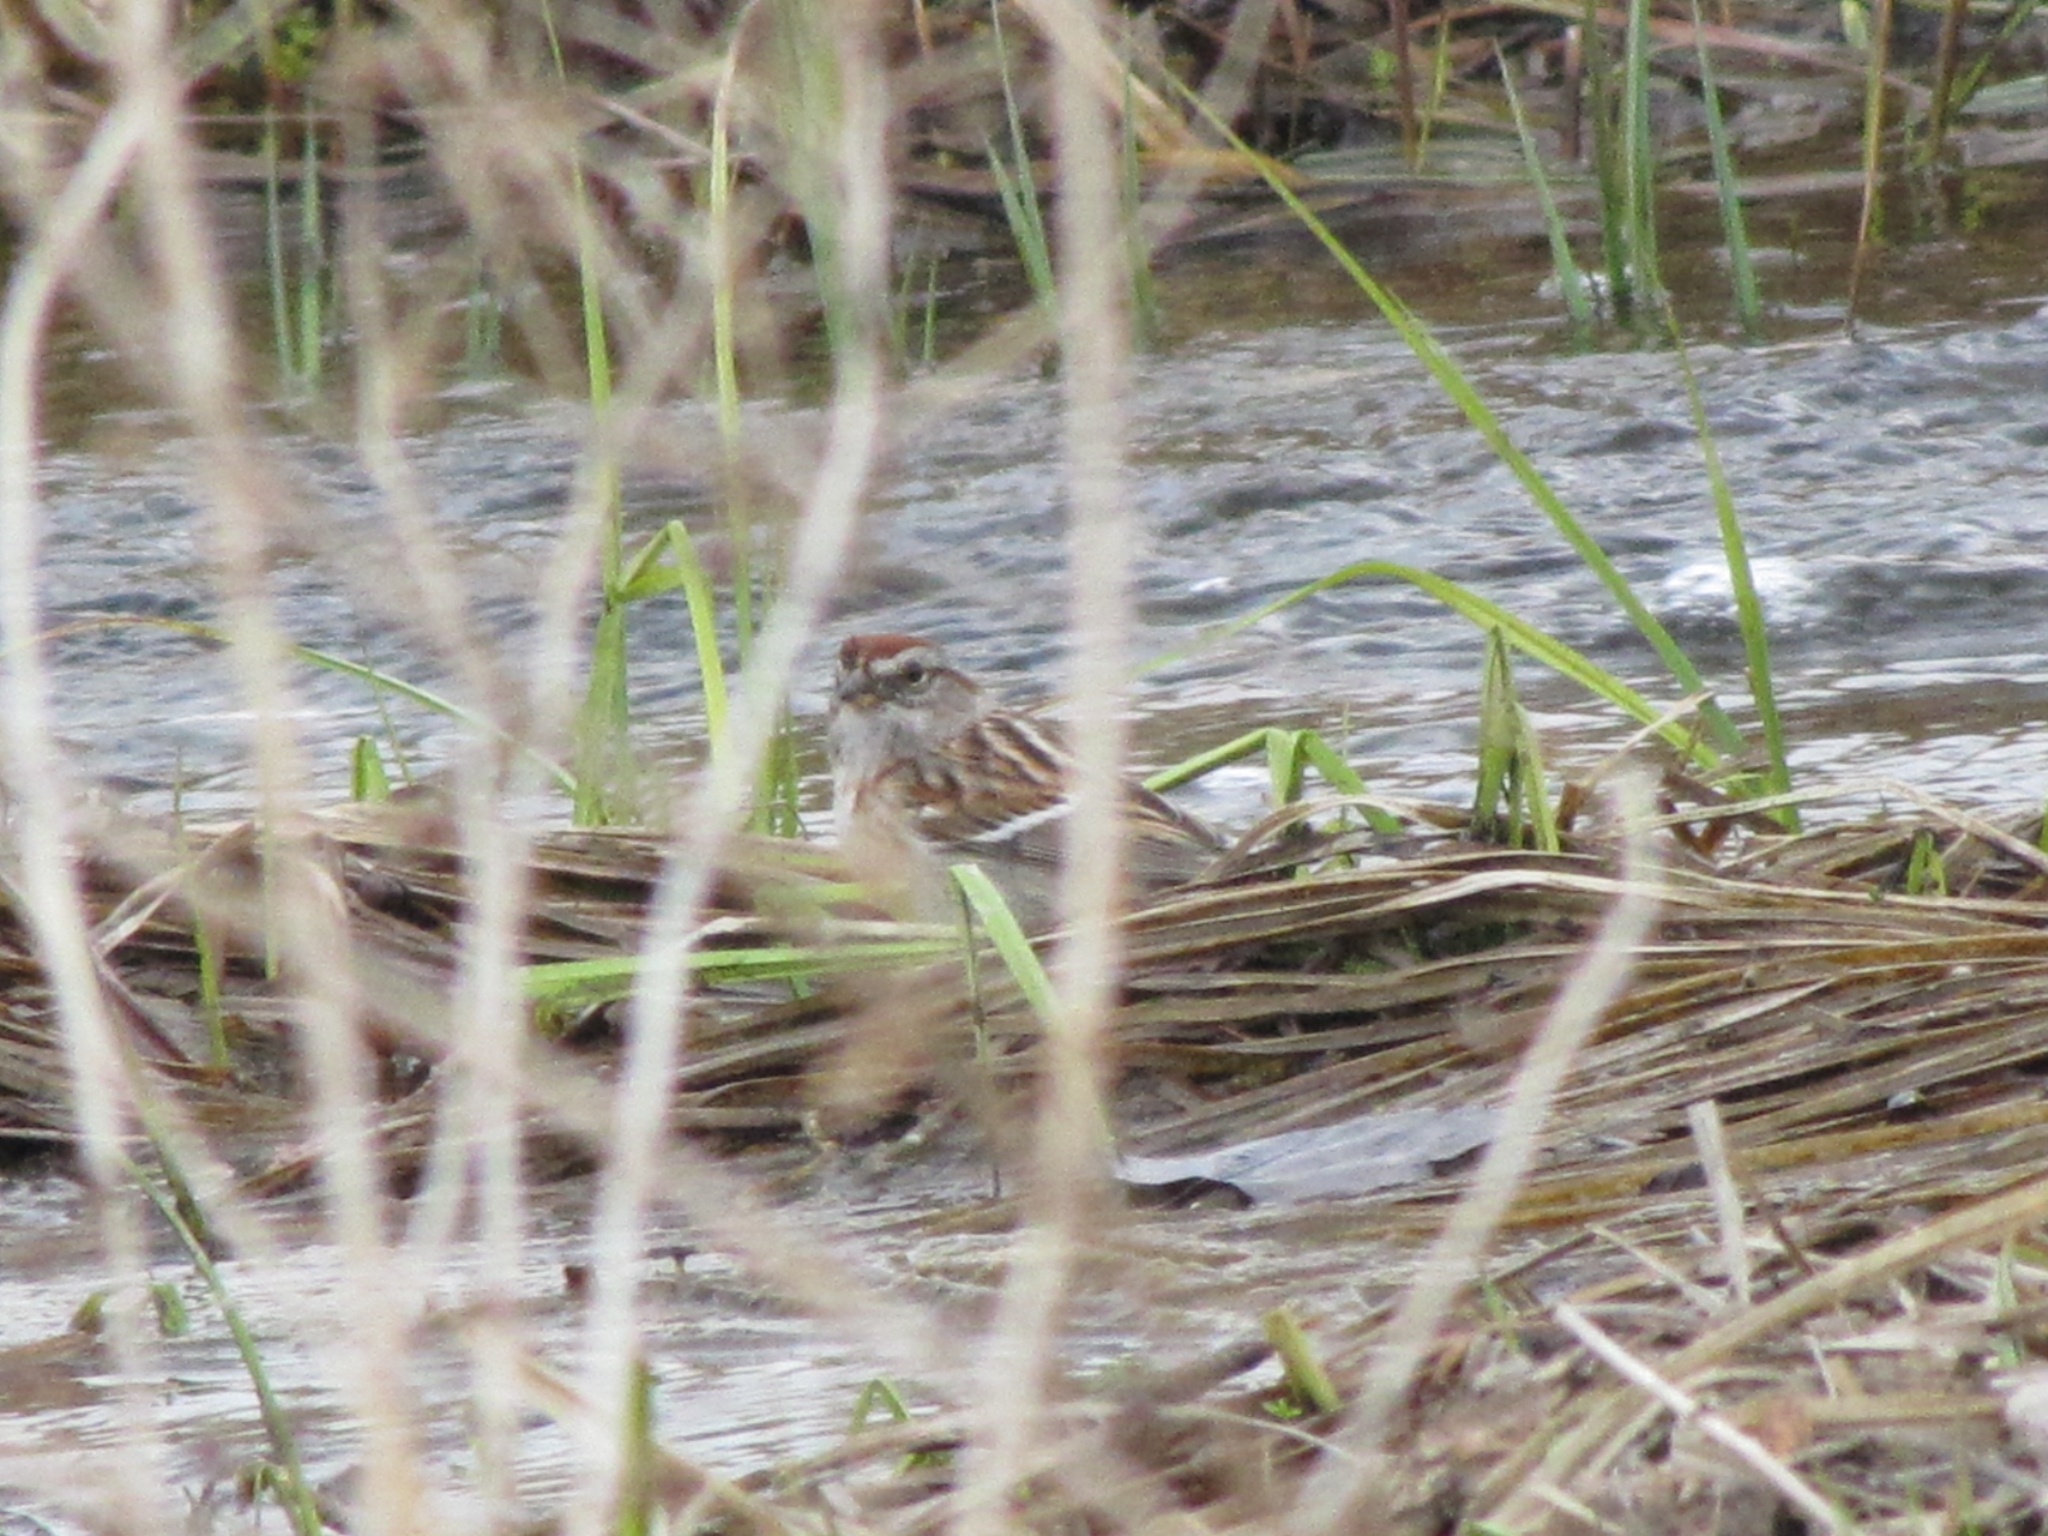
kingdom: Animalia
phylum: Chordata
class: Aves
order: Passeriformes
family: Passerellidae
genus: Spizelloides
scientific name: Spizelloides arborea
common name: American tree sparrow
